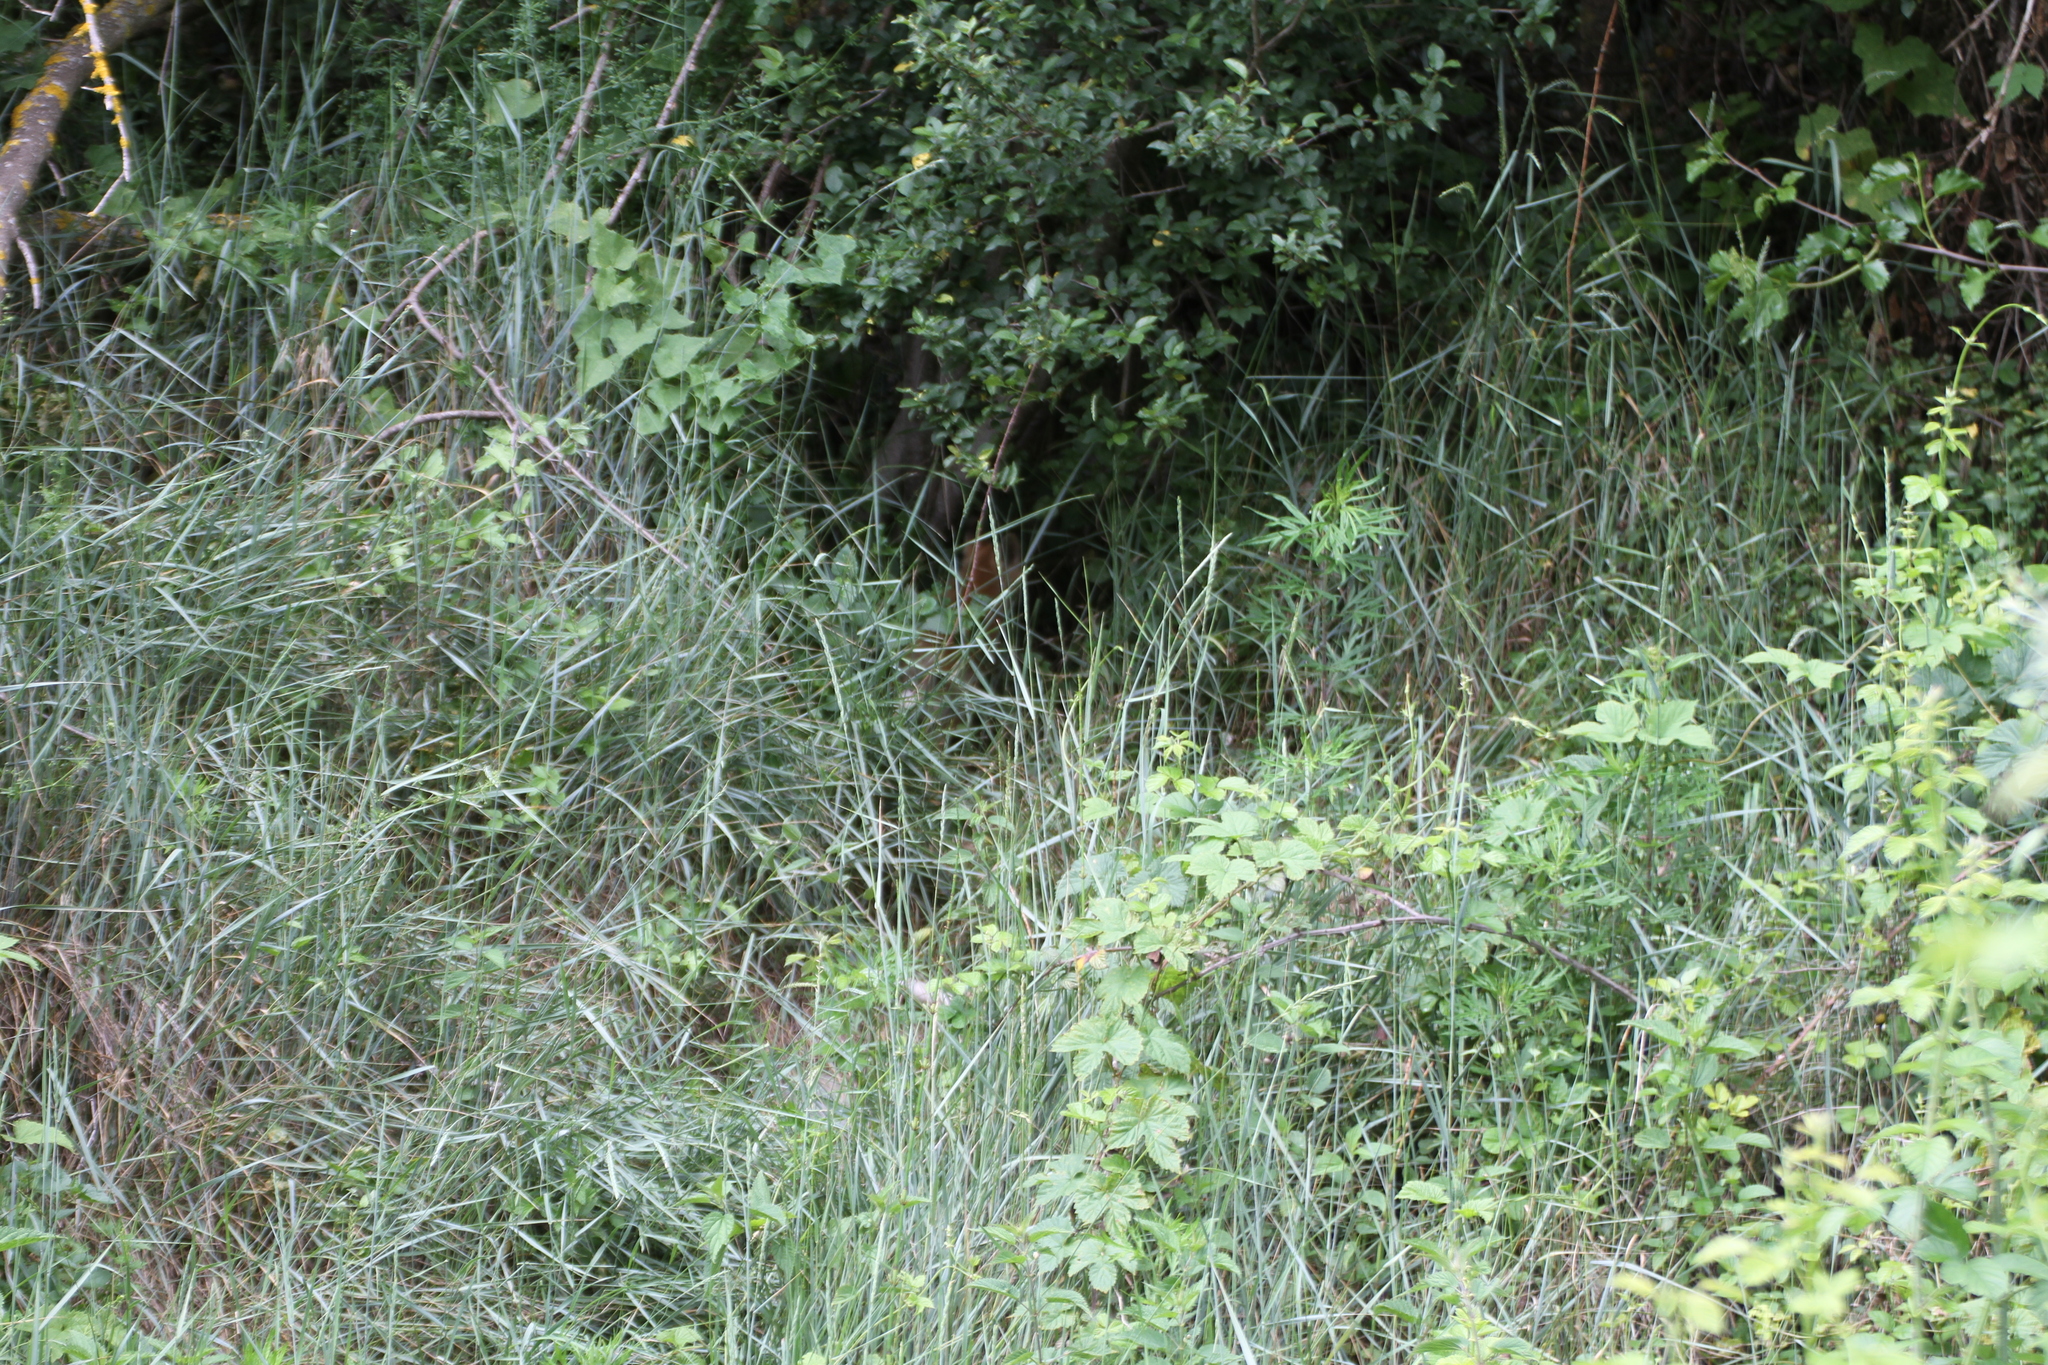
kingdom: Animalia
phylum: Chordata
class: Mammalia
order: Carnivora
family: Canidae
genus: Vulpes
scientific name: Vulpes vulpes
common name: Red fox
